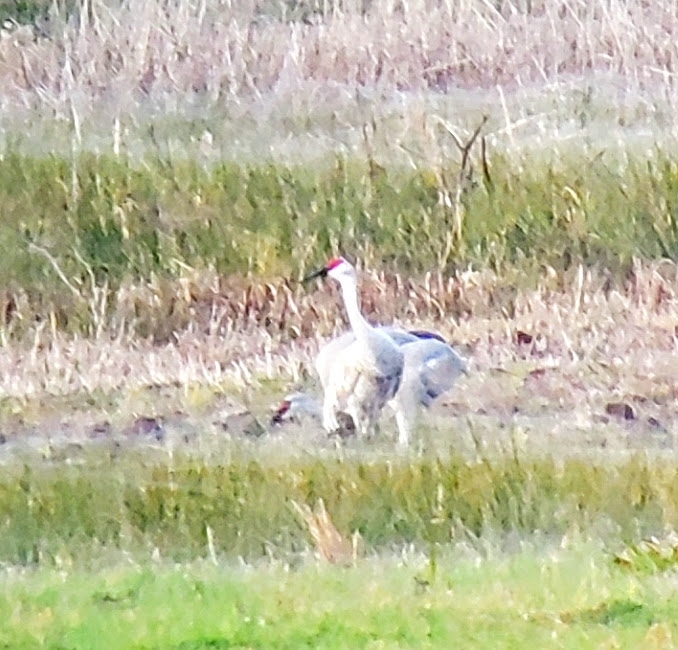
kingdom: Animalia
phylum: Chordata
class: Aves
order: Gruiformes
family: Gruidae
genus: Grus
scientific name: Grus canadensis
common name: Sandhill crane
